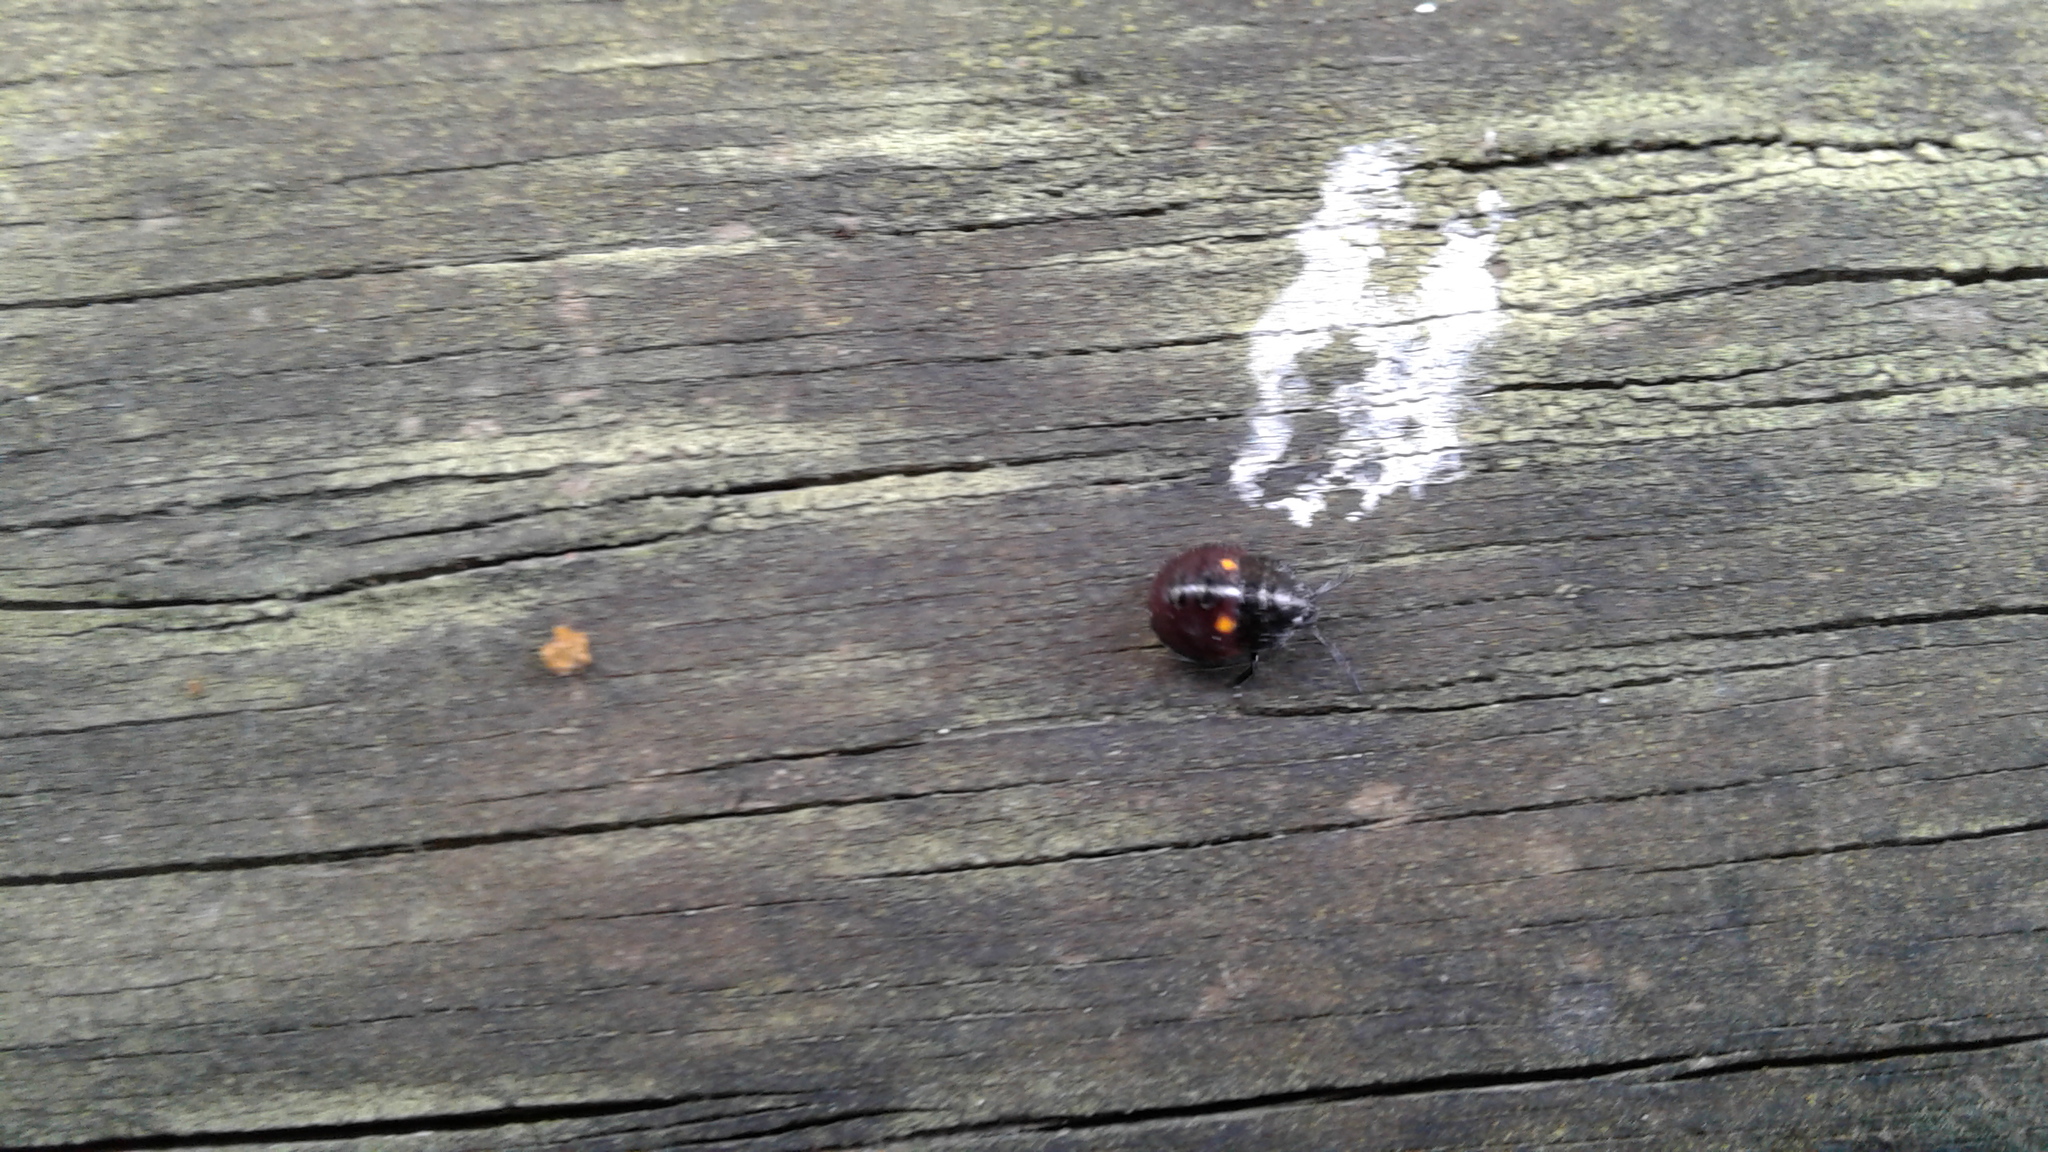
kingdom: Animalia
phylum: Arthropoda
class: Insecta
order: Hemiptera
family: Pentatomidae
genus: Monteithiella
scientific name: Monteithiella
